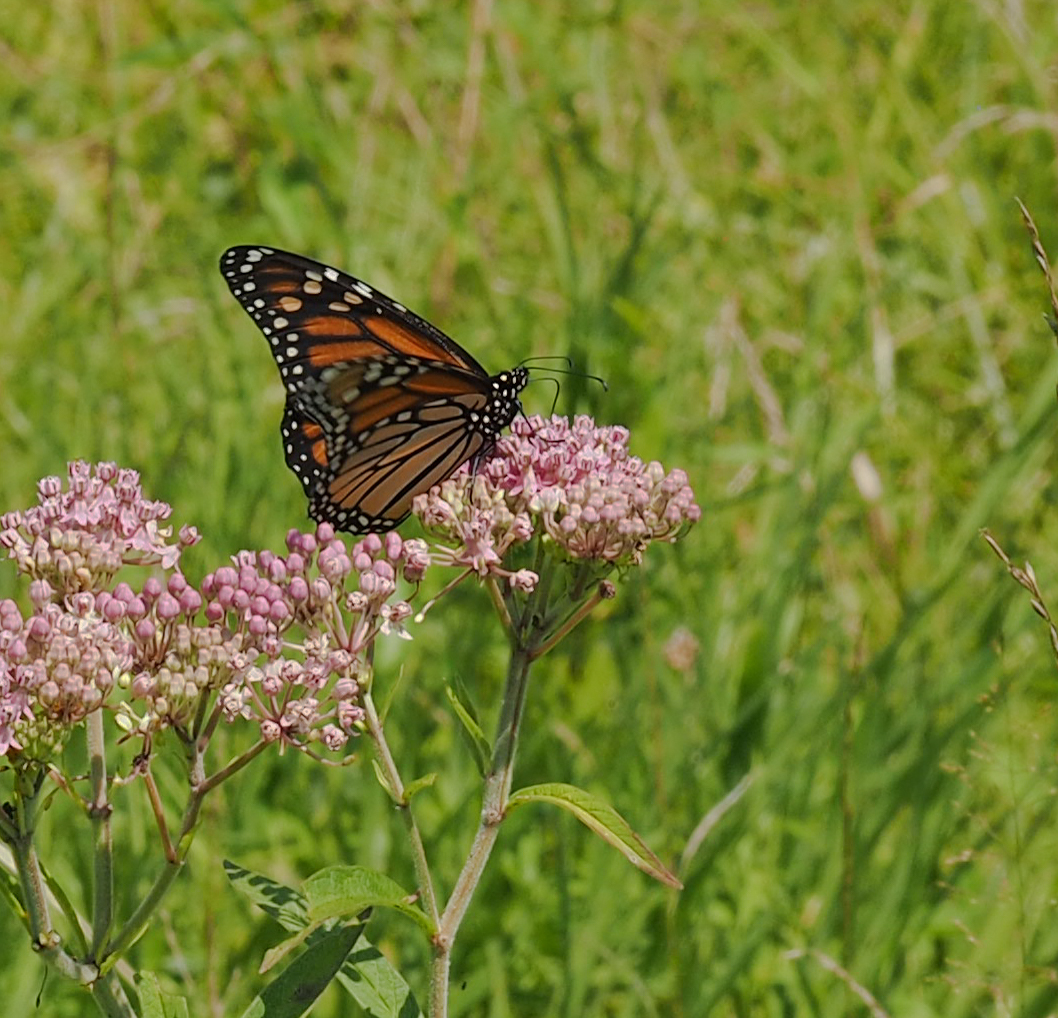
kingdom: Animalia
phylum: Arthropoda
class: Insecta
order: Lepidoptera
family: Nymphalidae
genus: Danaus
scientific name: Danaus plexippus
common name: Monarch
